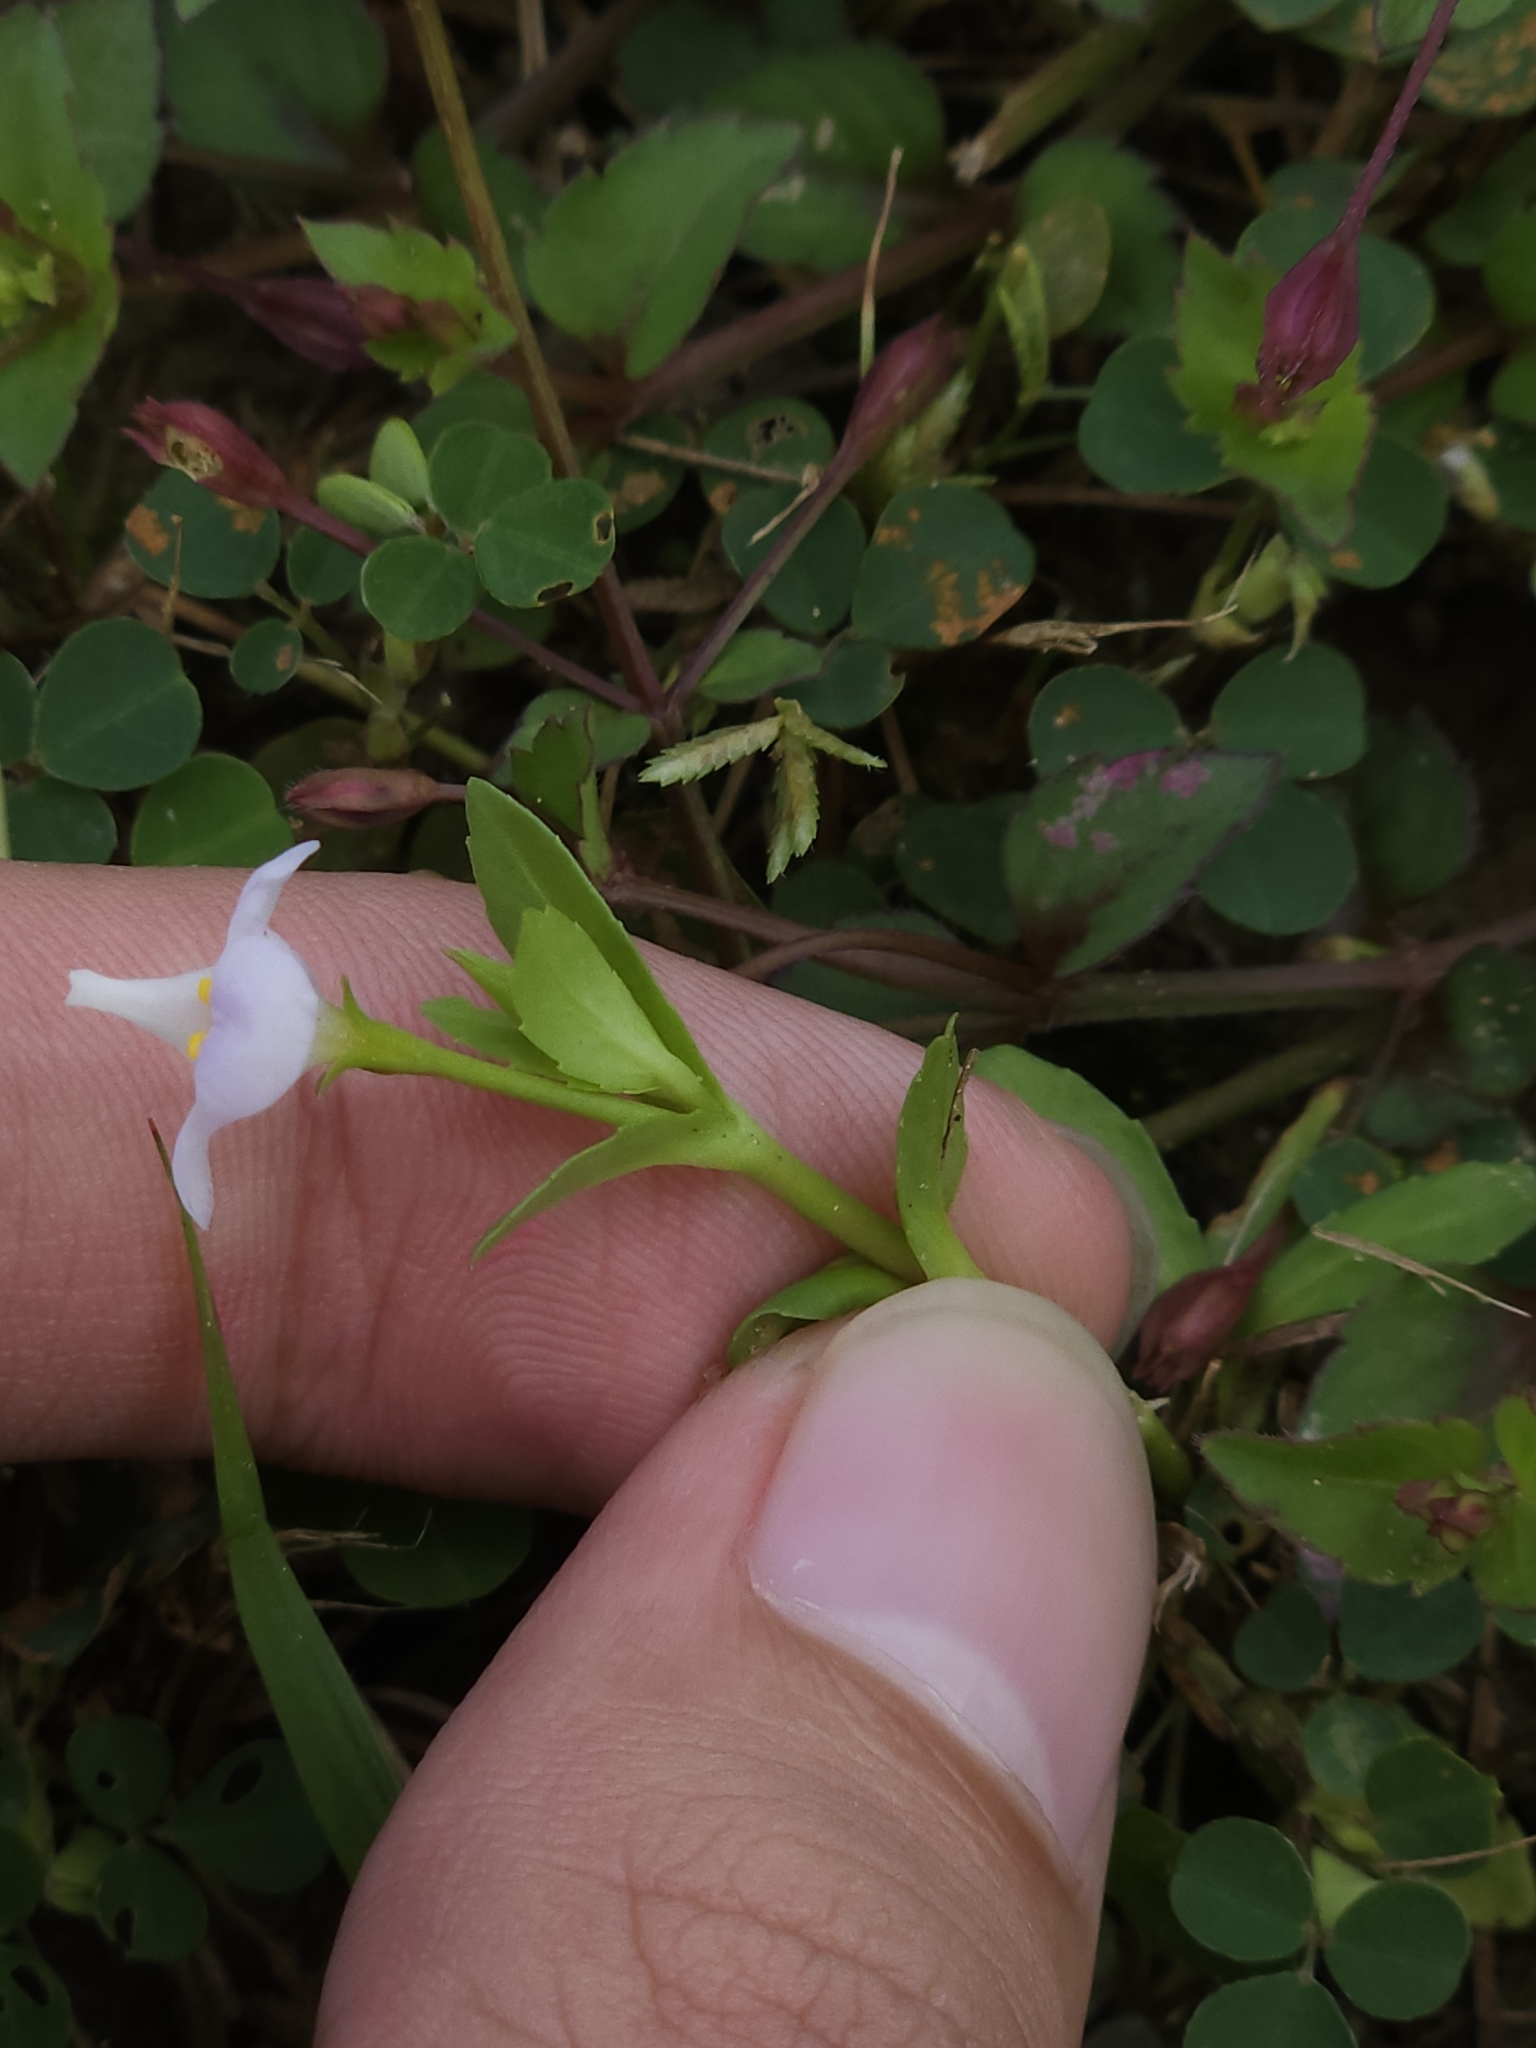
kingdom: Plantae
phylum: Tracheophyta
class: Magnoliopsida
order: Lamiales
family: Linderniaceae
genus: Bonnaya
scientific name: Bonnaya antipoda
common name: Sparrow false pimpernel
